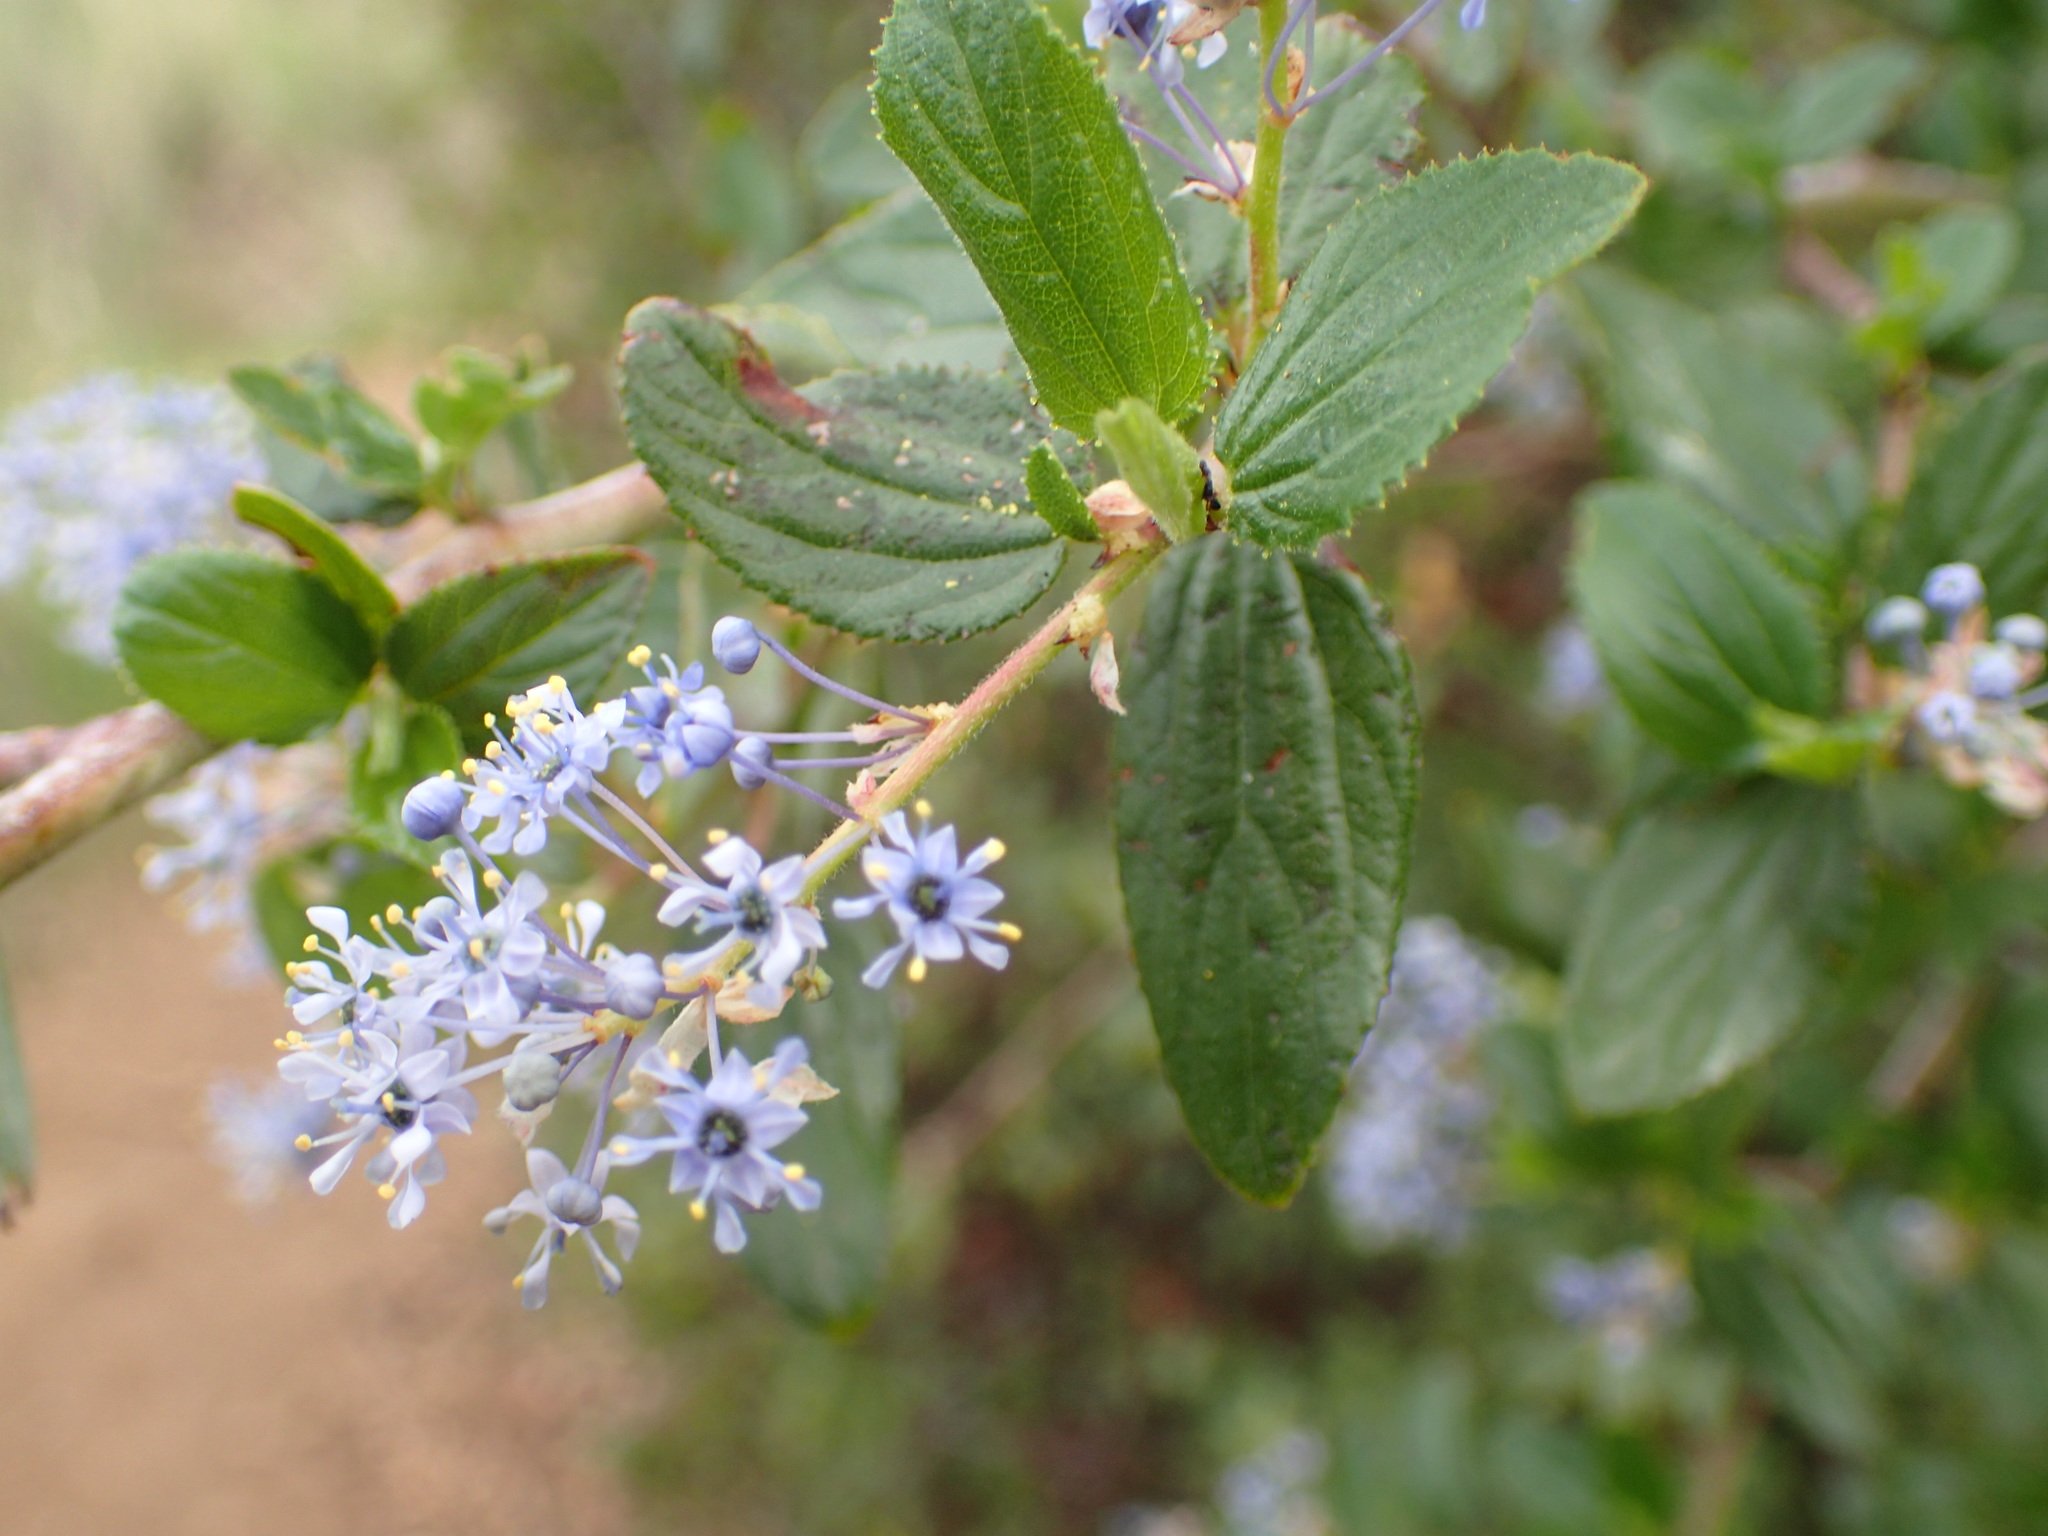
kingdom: Plantae
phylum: Tracheophyta
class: Magnoliopsida
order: Rosales
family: Rhamnaceae
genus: Ceanothus
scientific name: Ceanothus oliganthus
